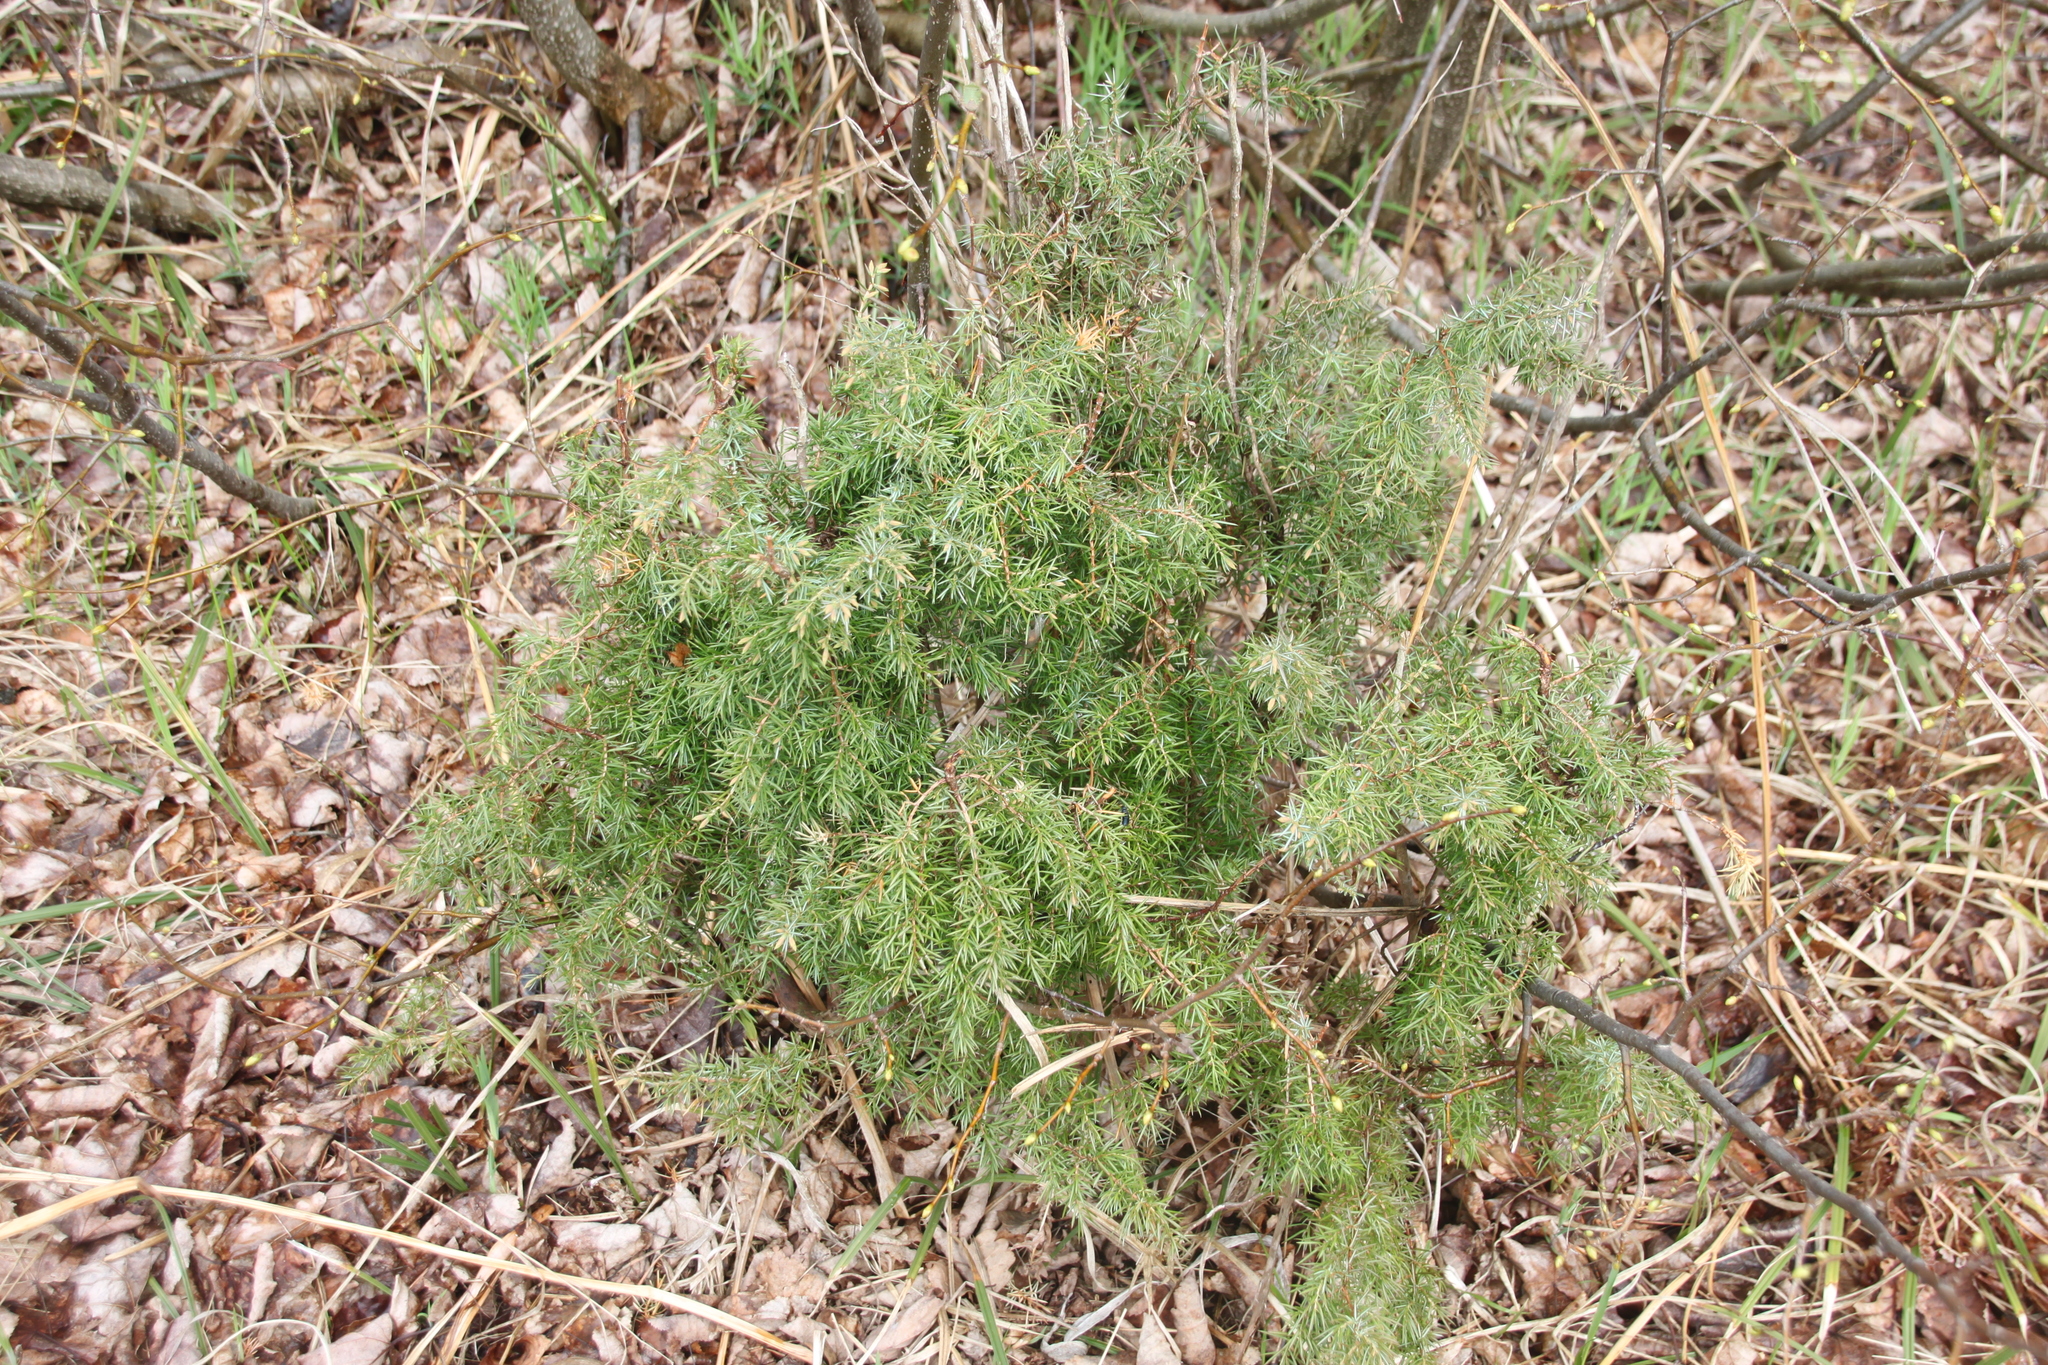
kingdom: Plantae
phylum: Tracheophyta
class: Pinopsida
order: Pinales
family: Cupressaceae
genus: Juniperus
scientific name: Juniperus communis
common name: Common juniper
